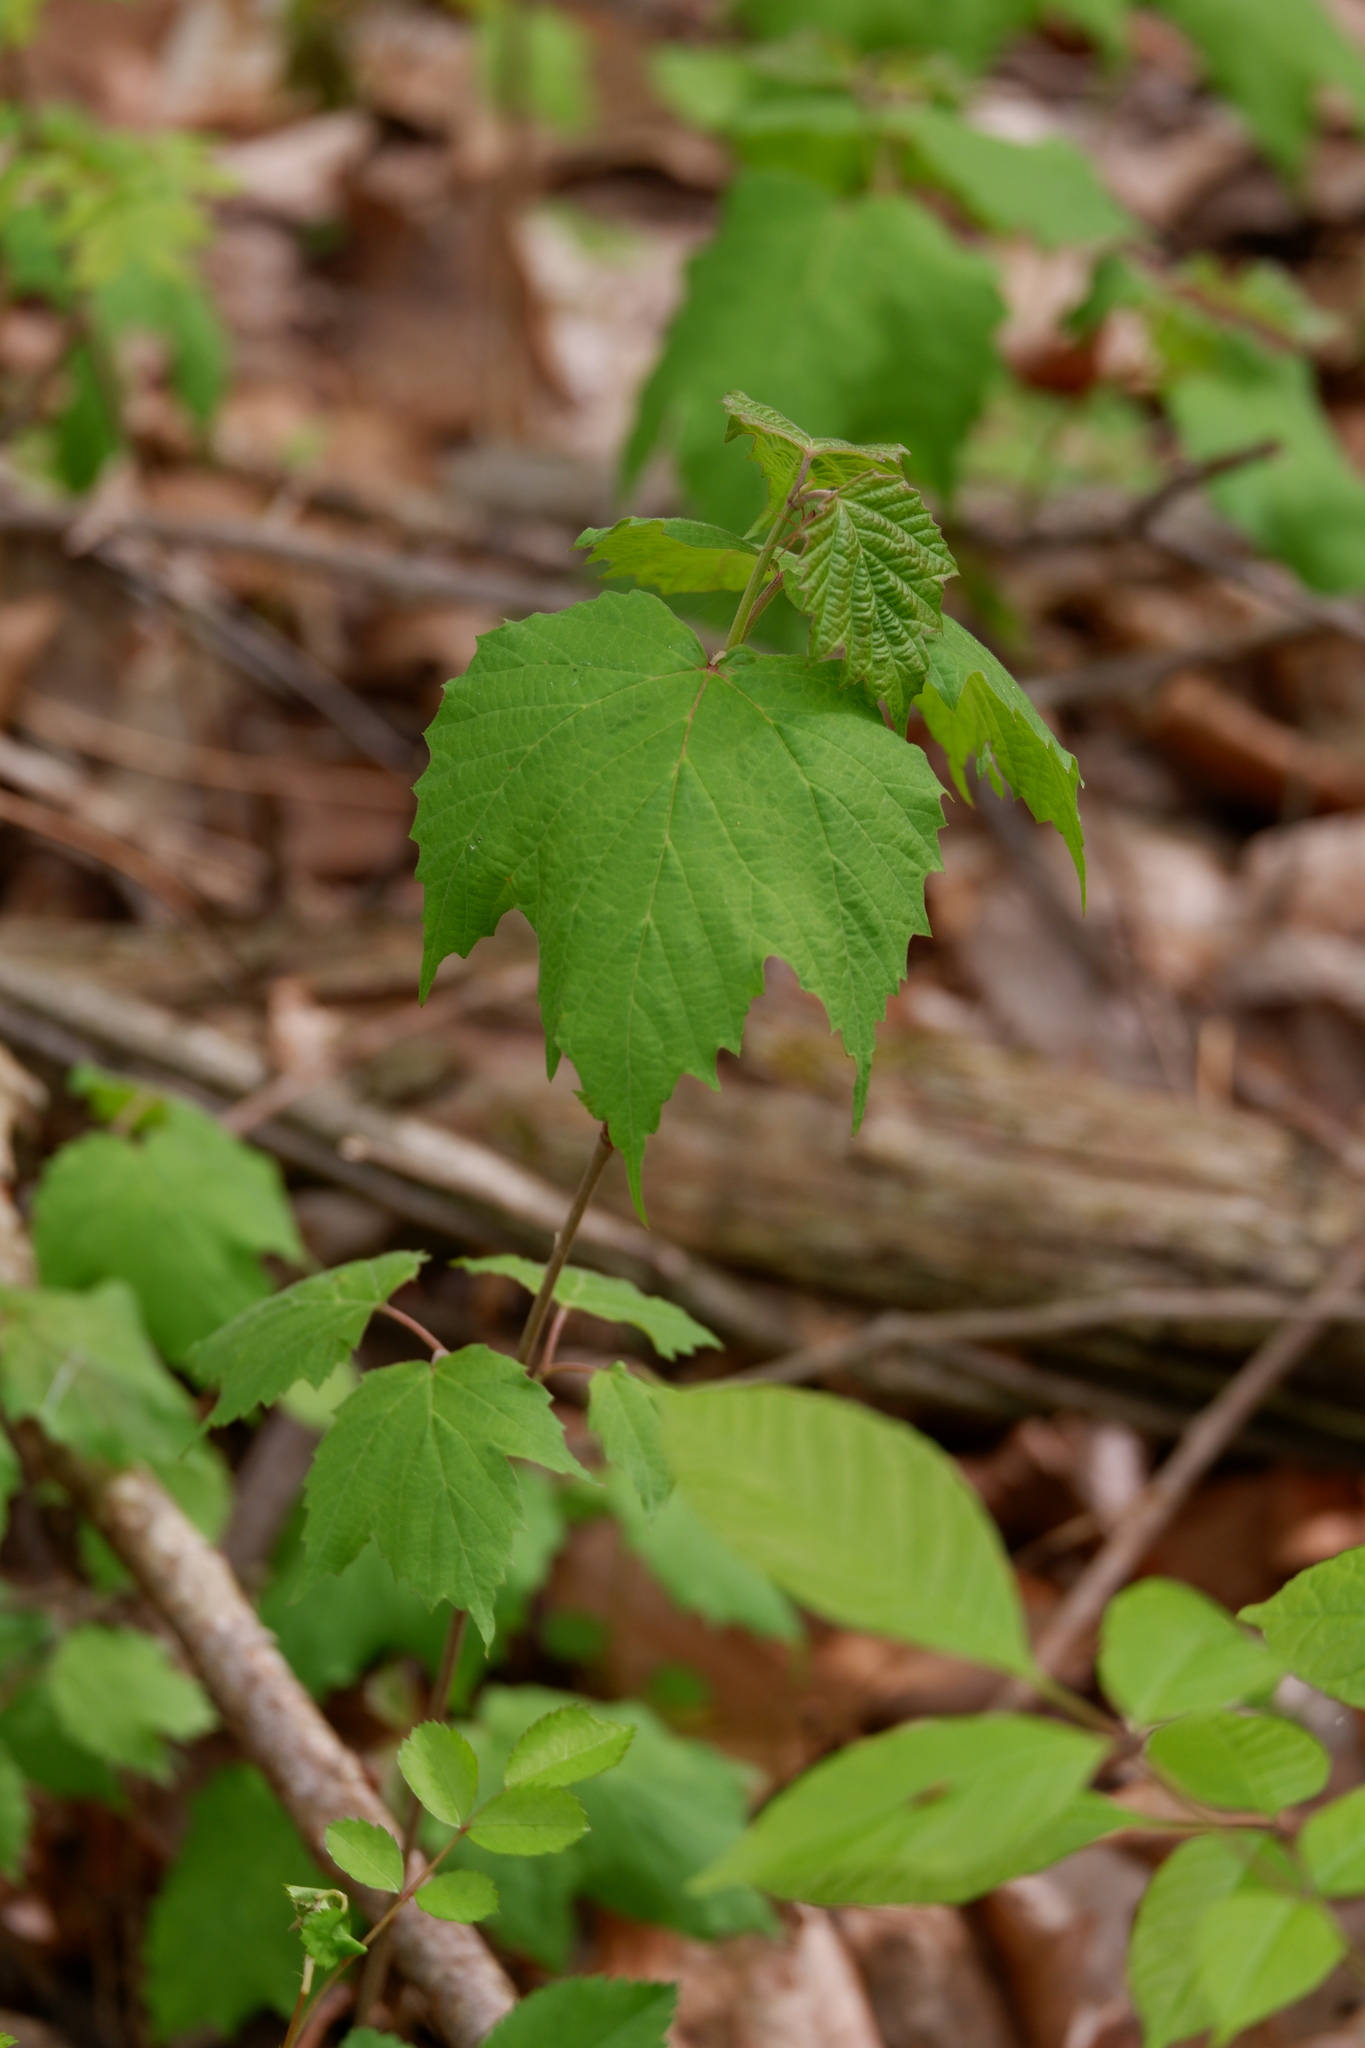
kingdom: Plantae
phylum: Tracheophyta
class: Magnoliopsida
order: Dipsacales
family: Viburnaceae
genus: Viburnum
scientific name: Viburnum acerifolium
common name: Dockmackie
